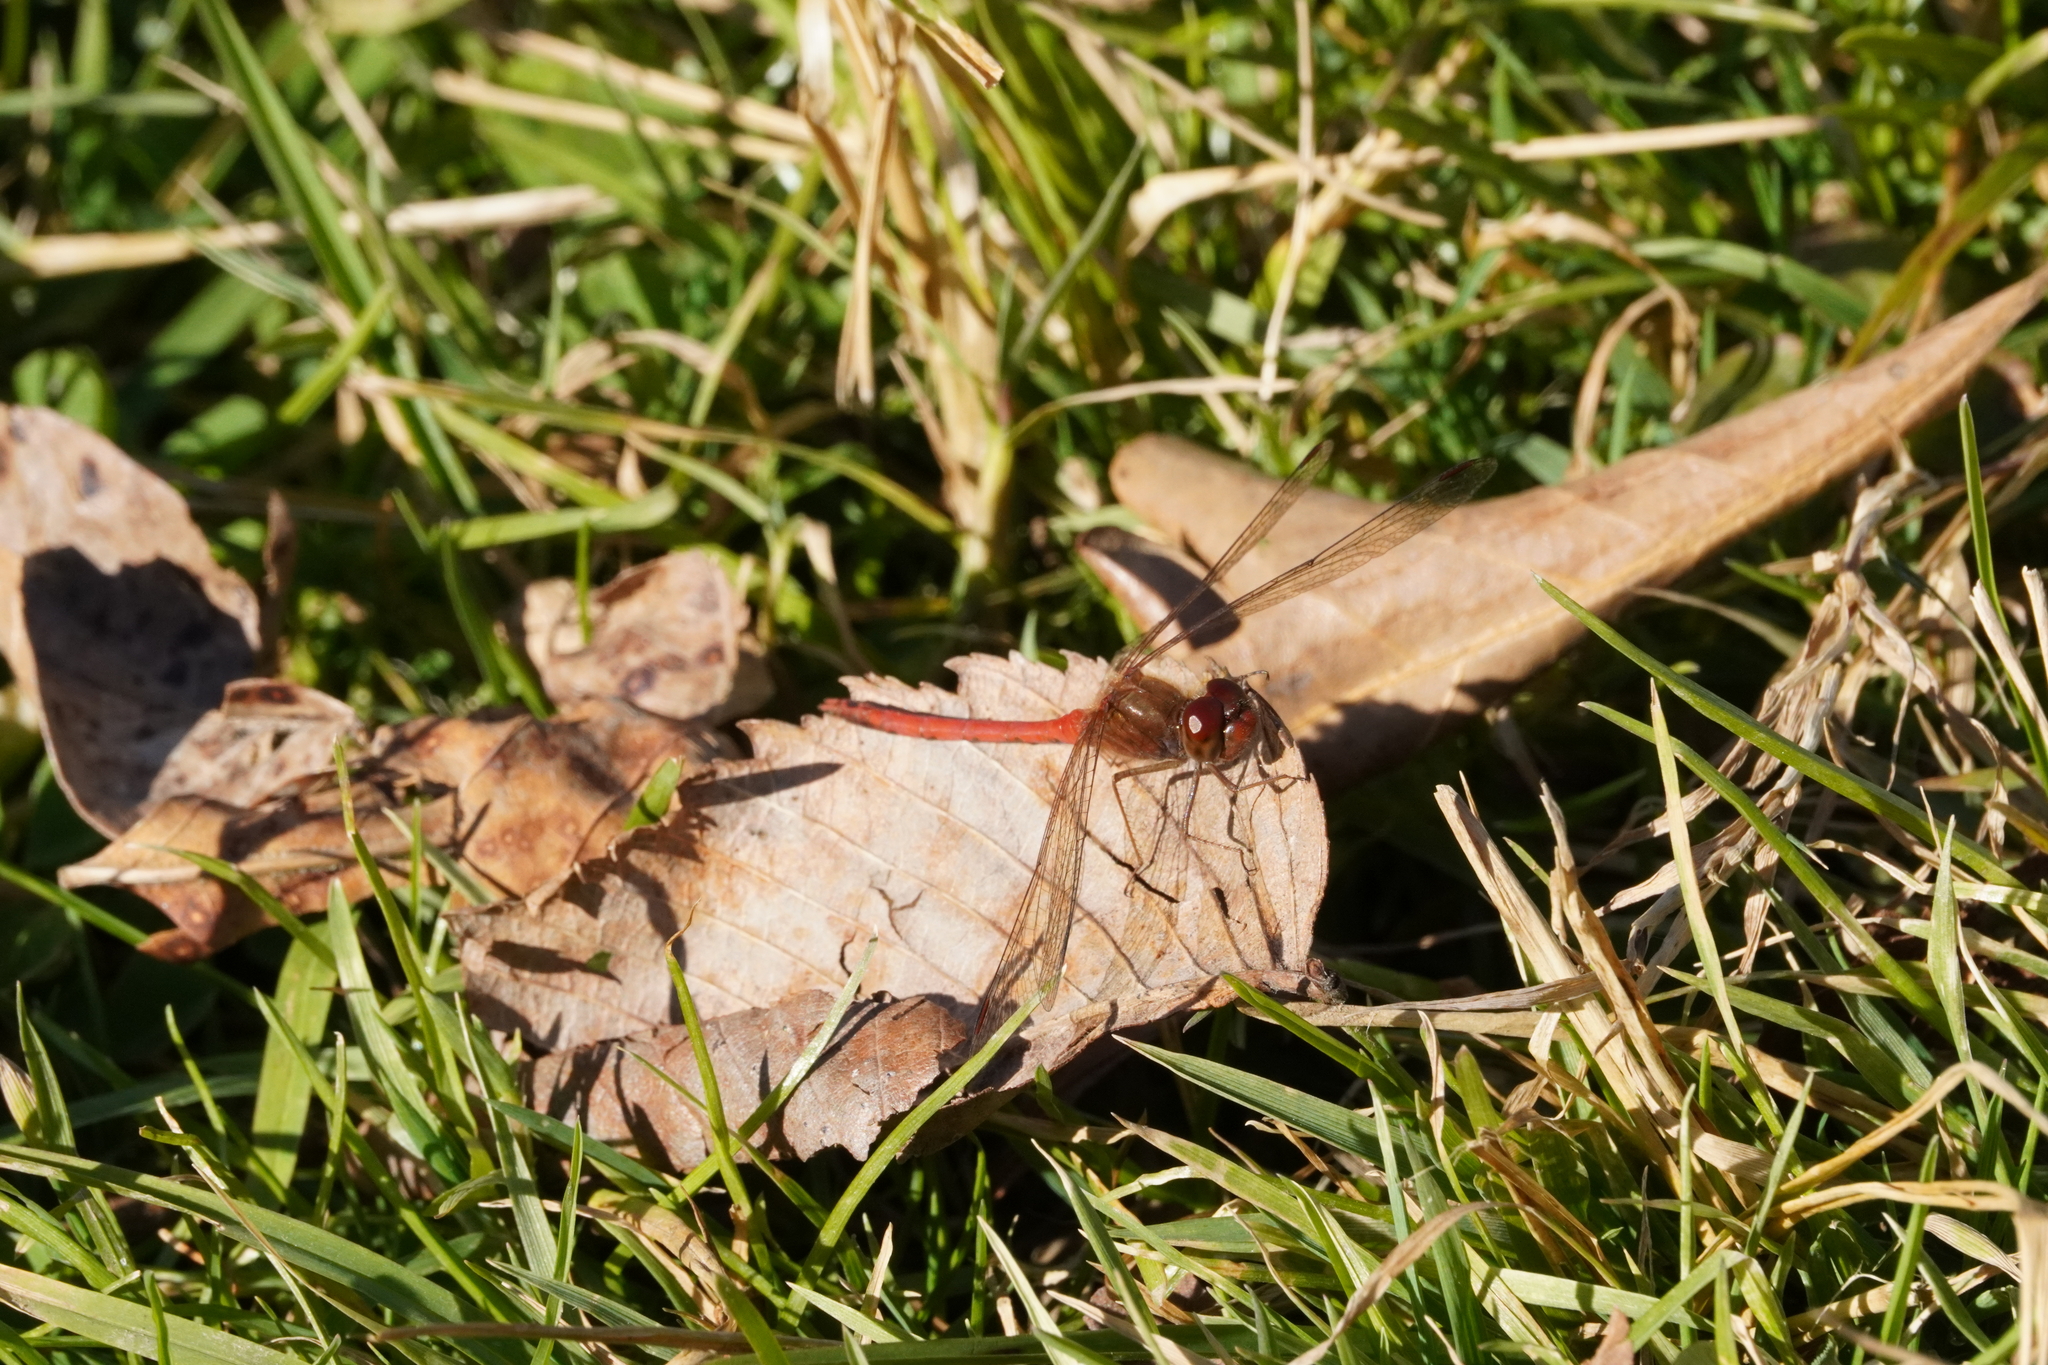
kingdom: Animalia
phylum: Arthropoda
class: Insecta
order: Odonata
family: Libellulidae
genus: Sympetrum
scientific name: Sympetrum vicinum
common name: Autumn meadowhawk
